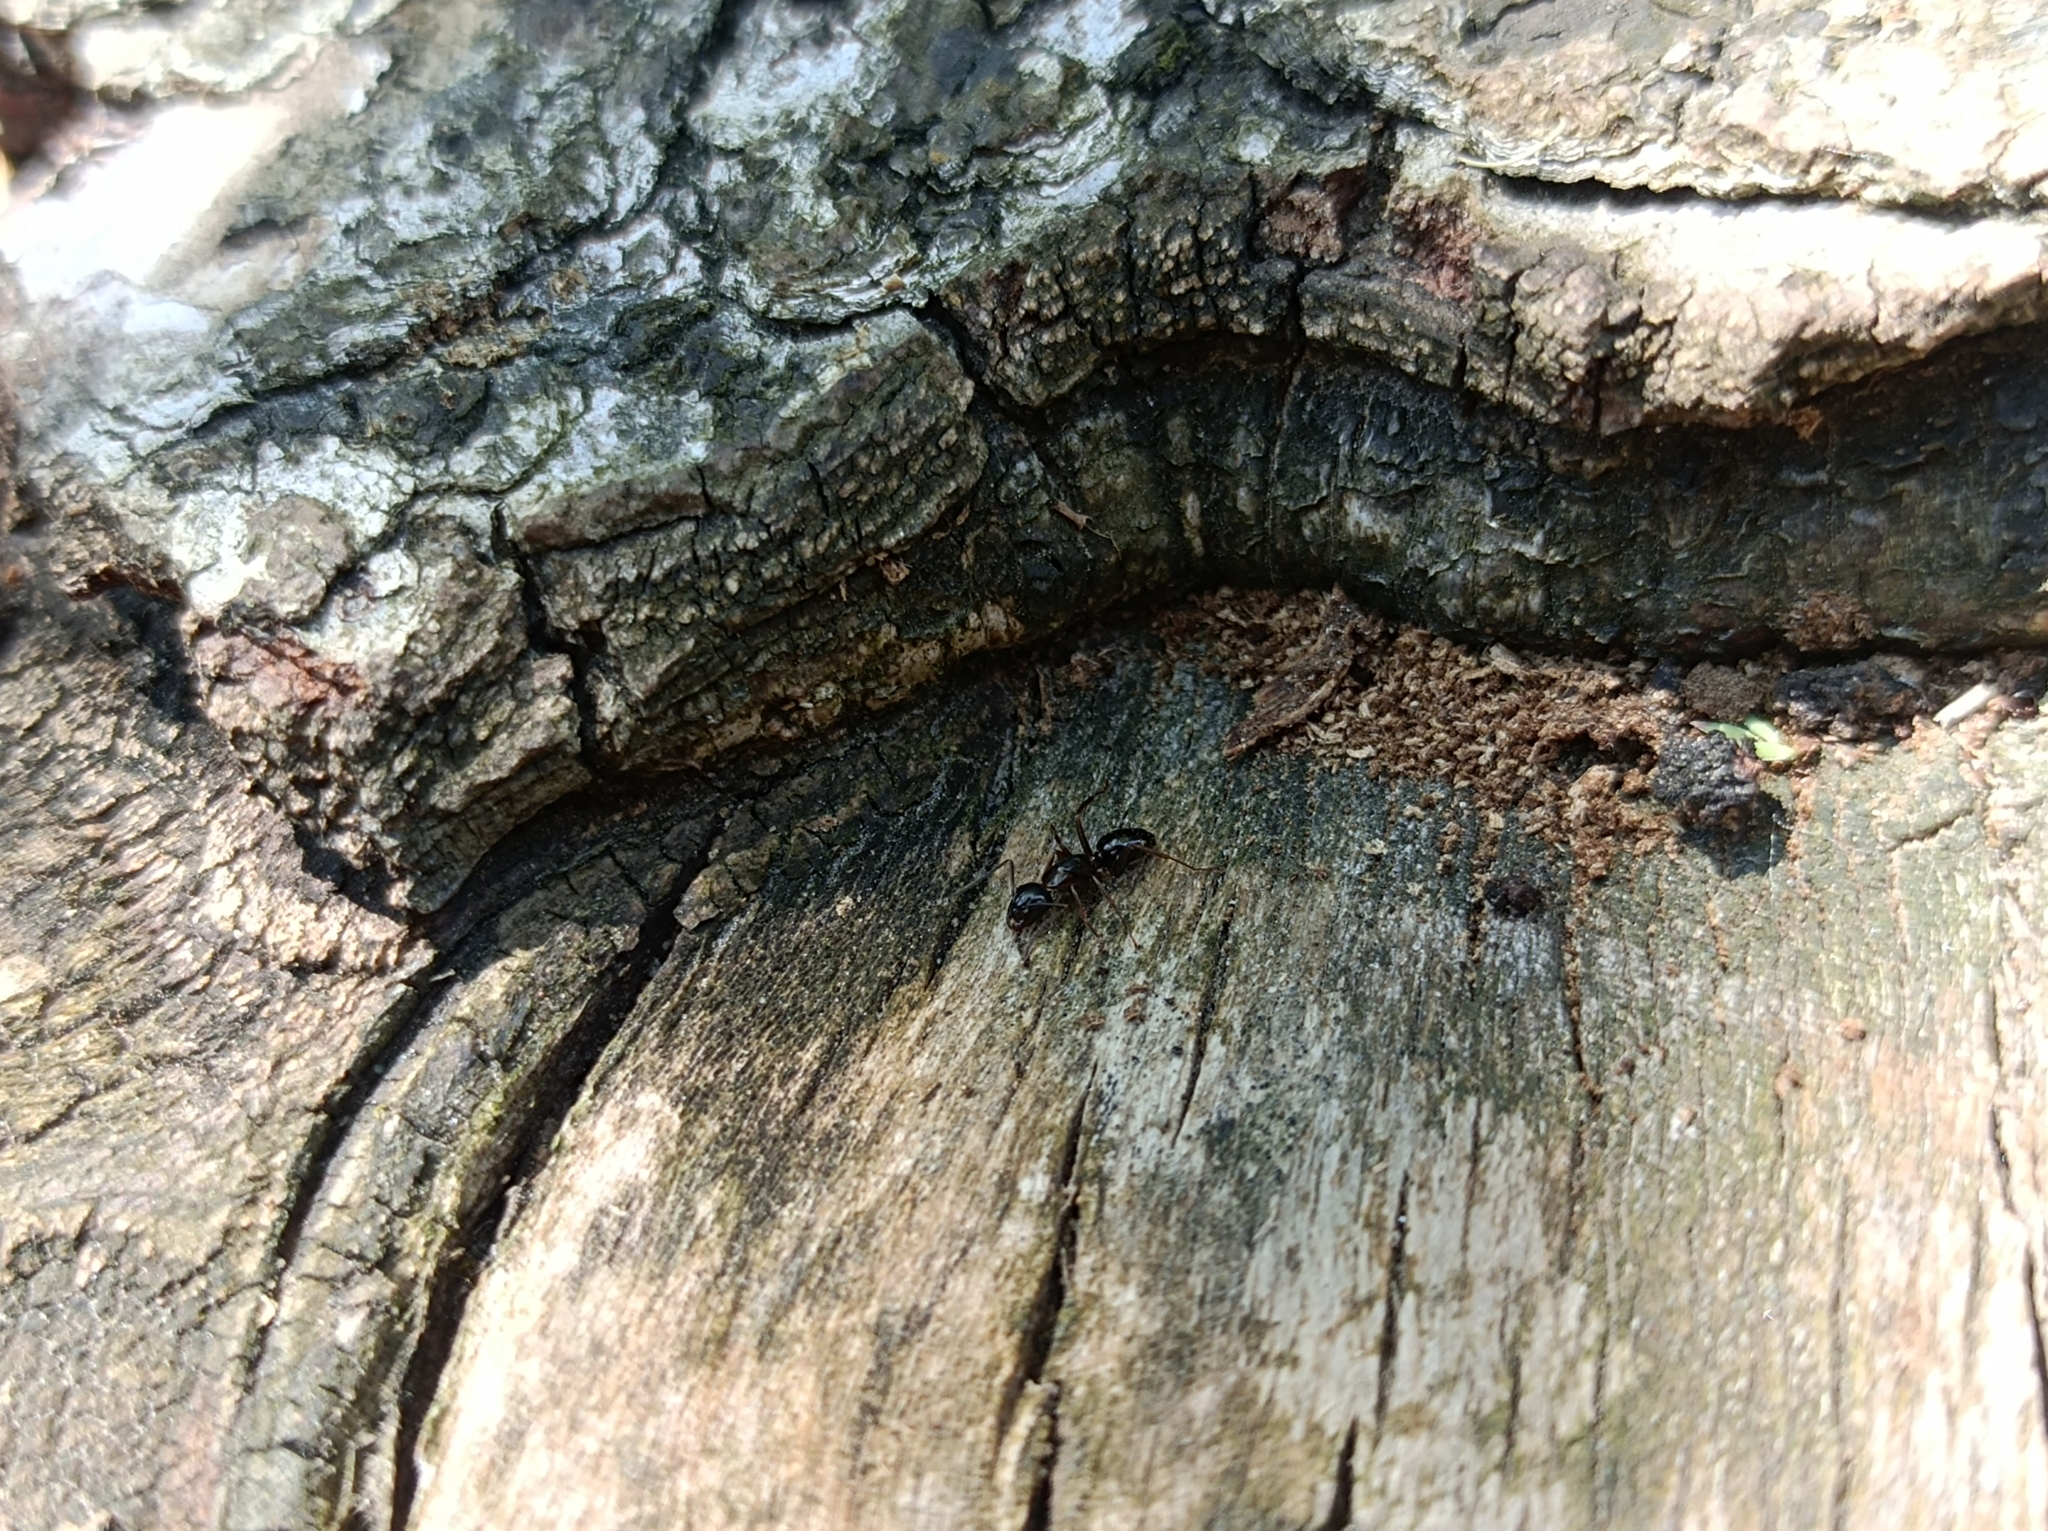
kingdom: Animalia
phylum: Arthropoda
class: Insecta
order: Hymenoptera
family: Formicidae
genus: Camponotus
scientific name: Camponotus fallax
